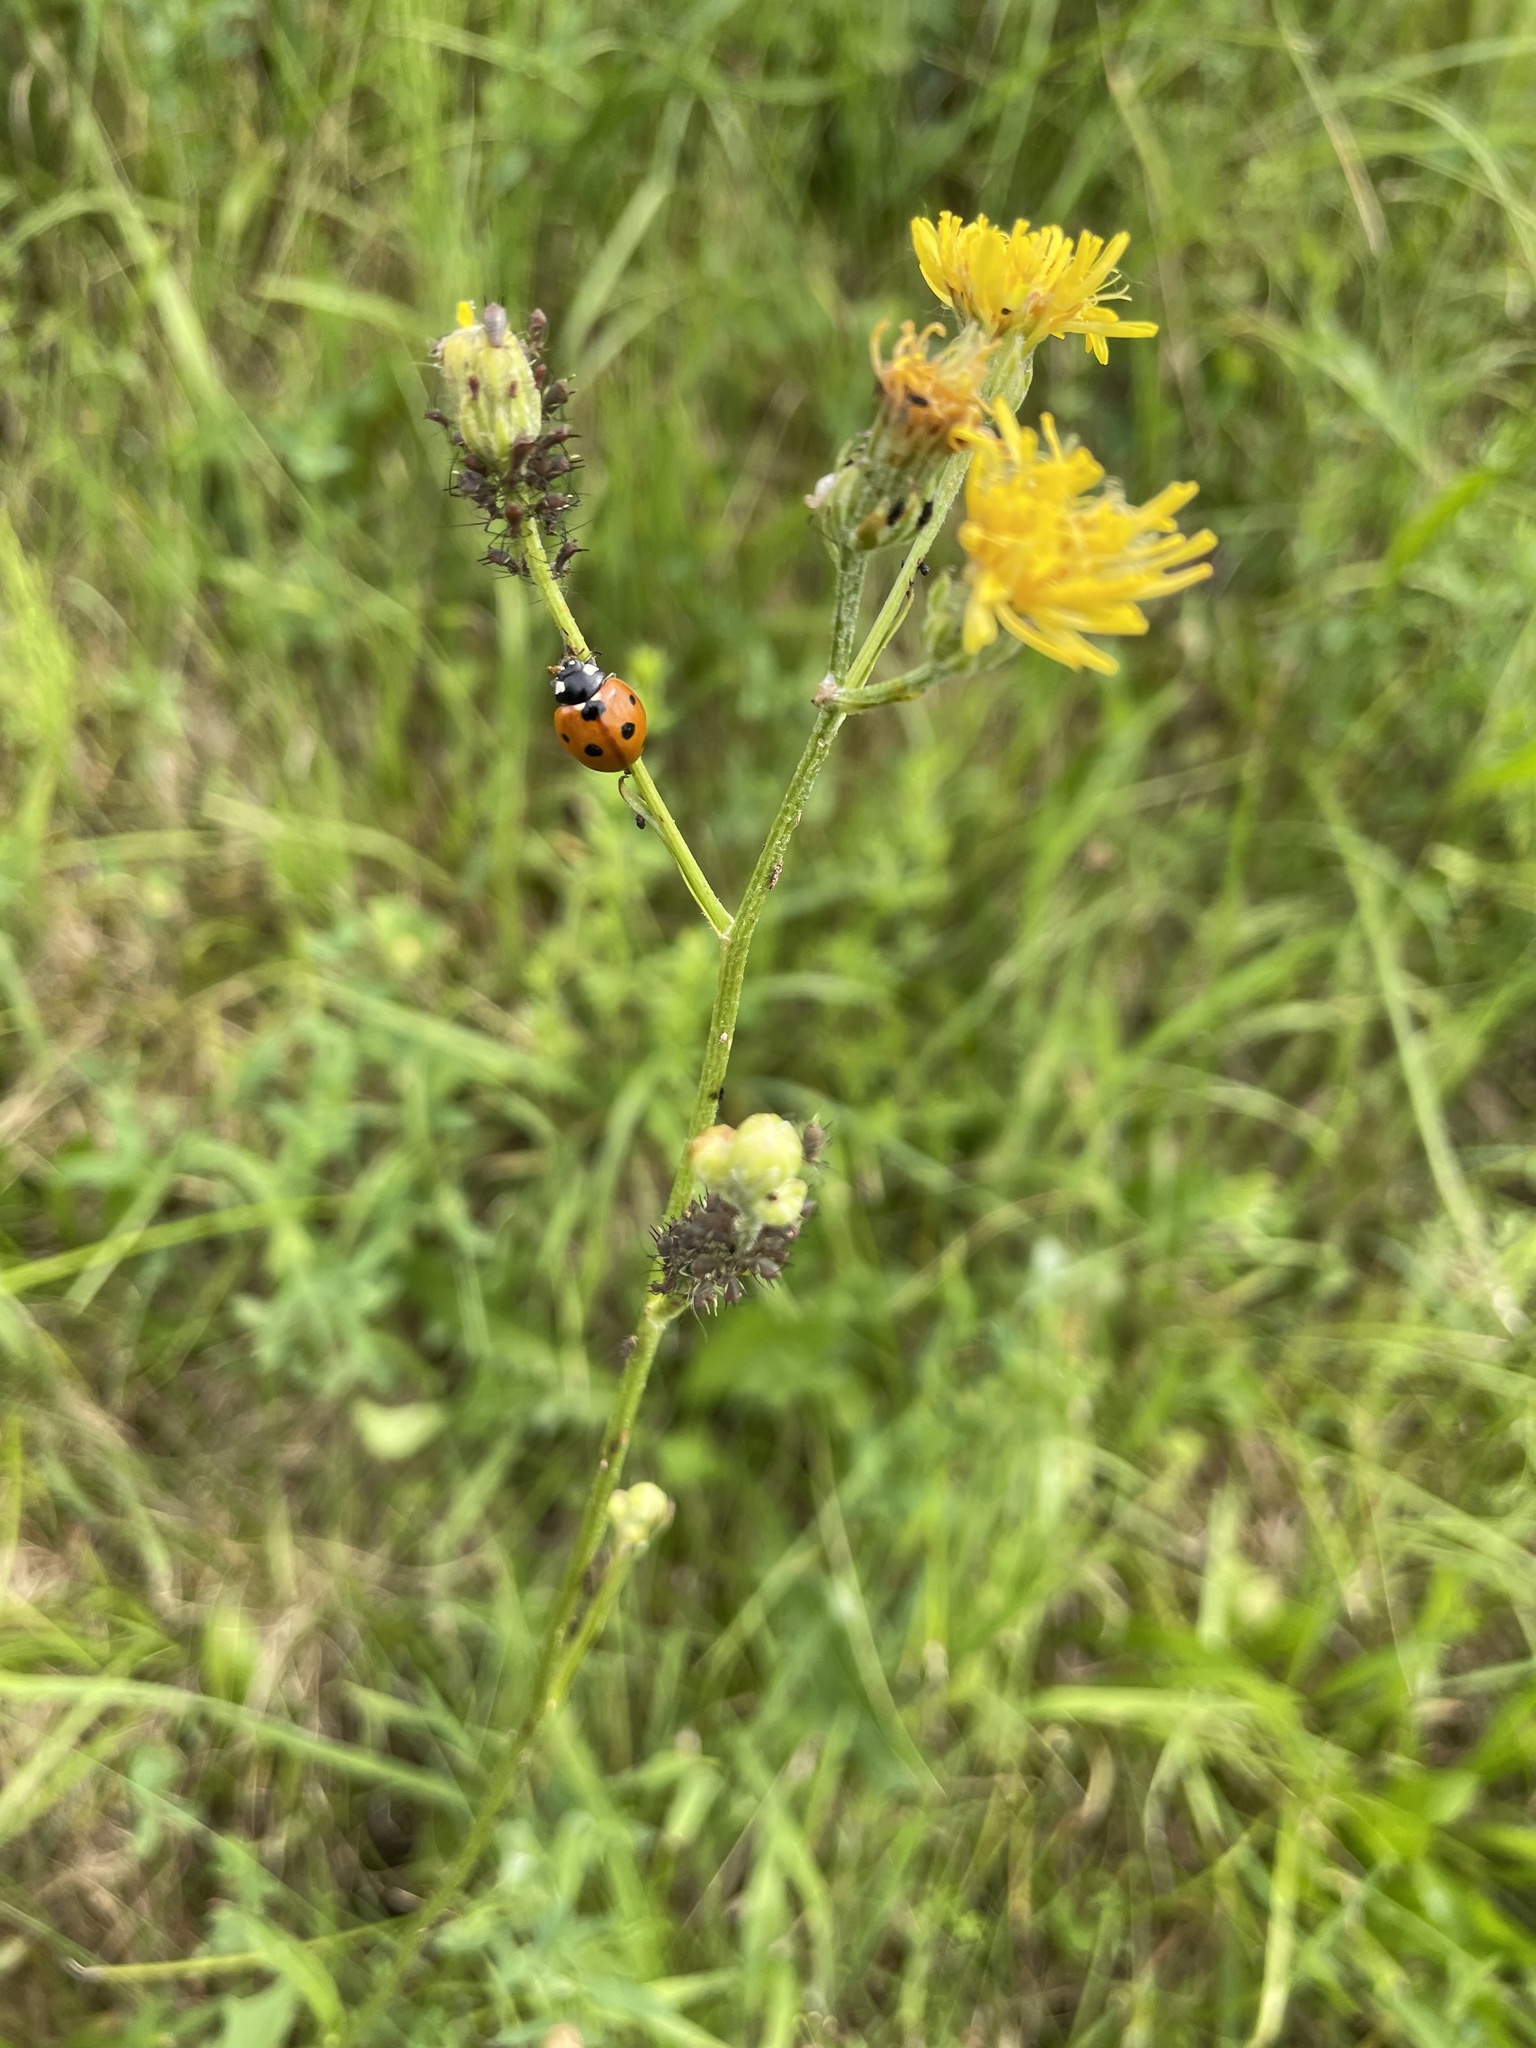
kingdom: Animalia
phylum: Arthropoda
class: Insecta
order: Coleoptera
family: Coccinellidae
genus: Coccinella
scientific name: Coccinella septempunctata
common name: Sevenspotted lady beetle
